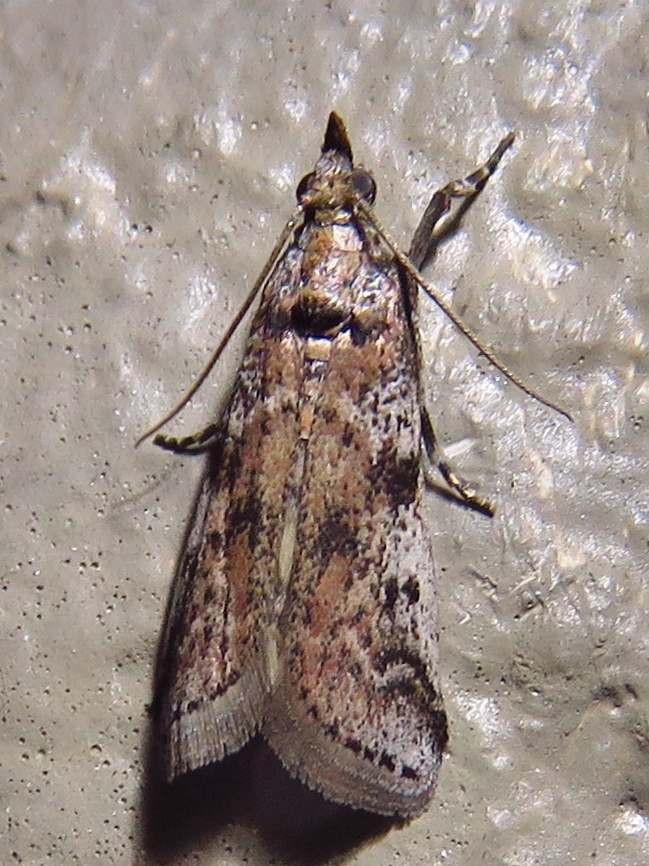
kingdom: Animalia
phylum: Arthropoda
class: Insecta
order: Lepidoptera
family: Pyralidae
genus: Laetilia
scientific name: Laetilia coccidivora
